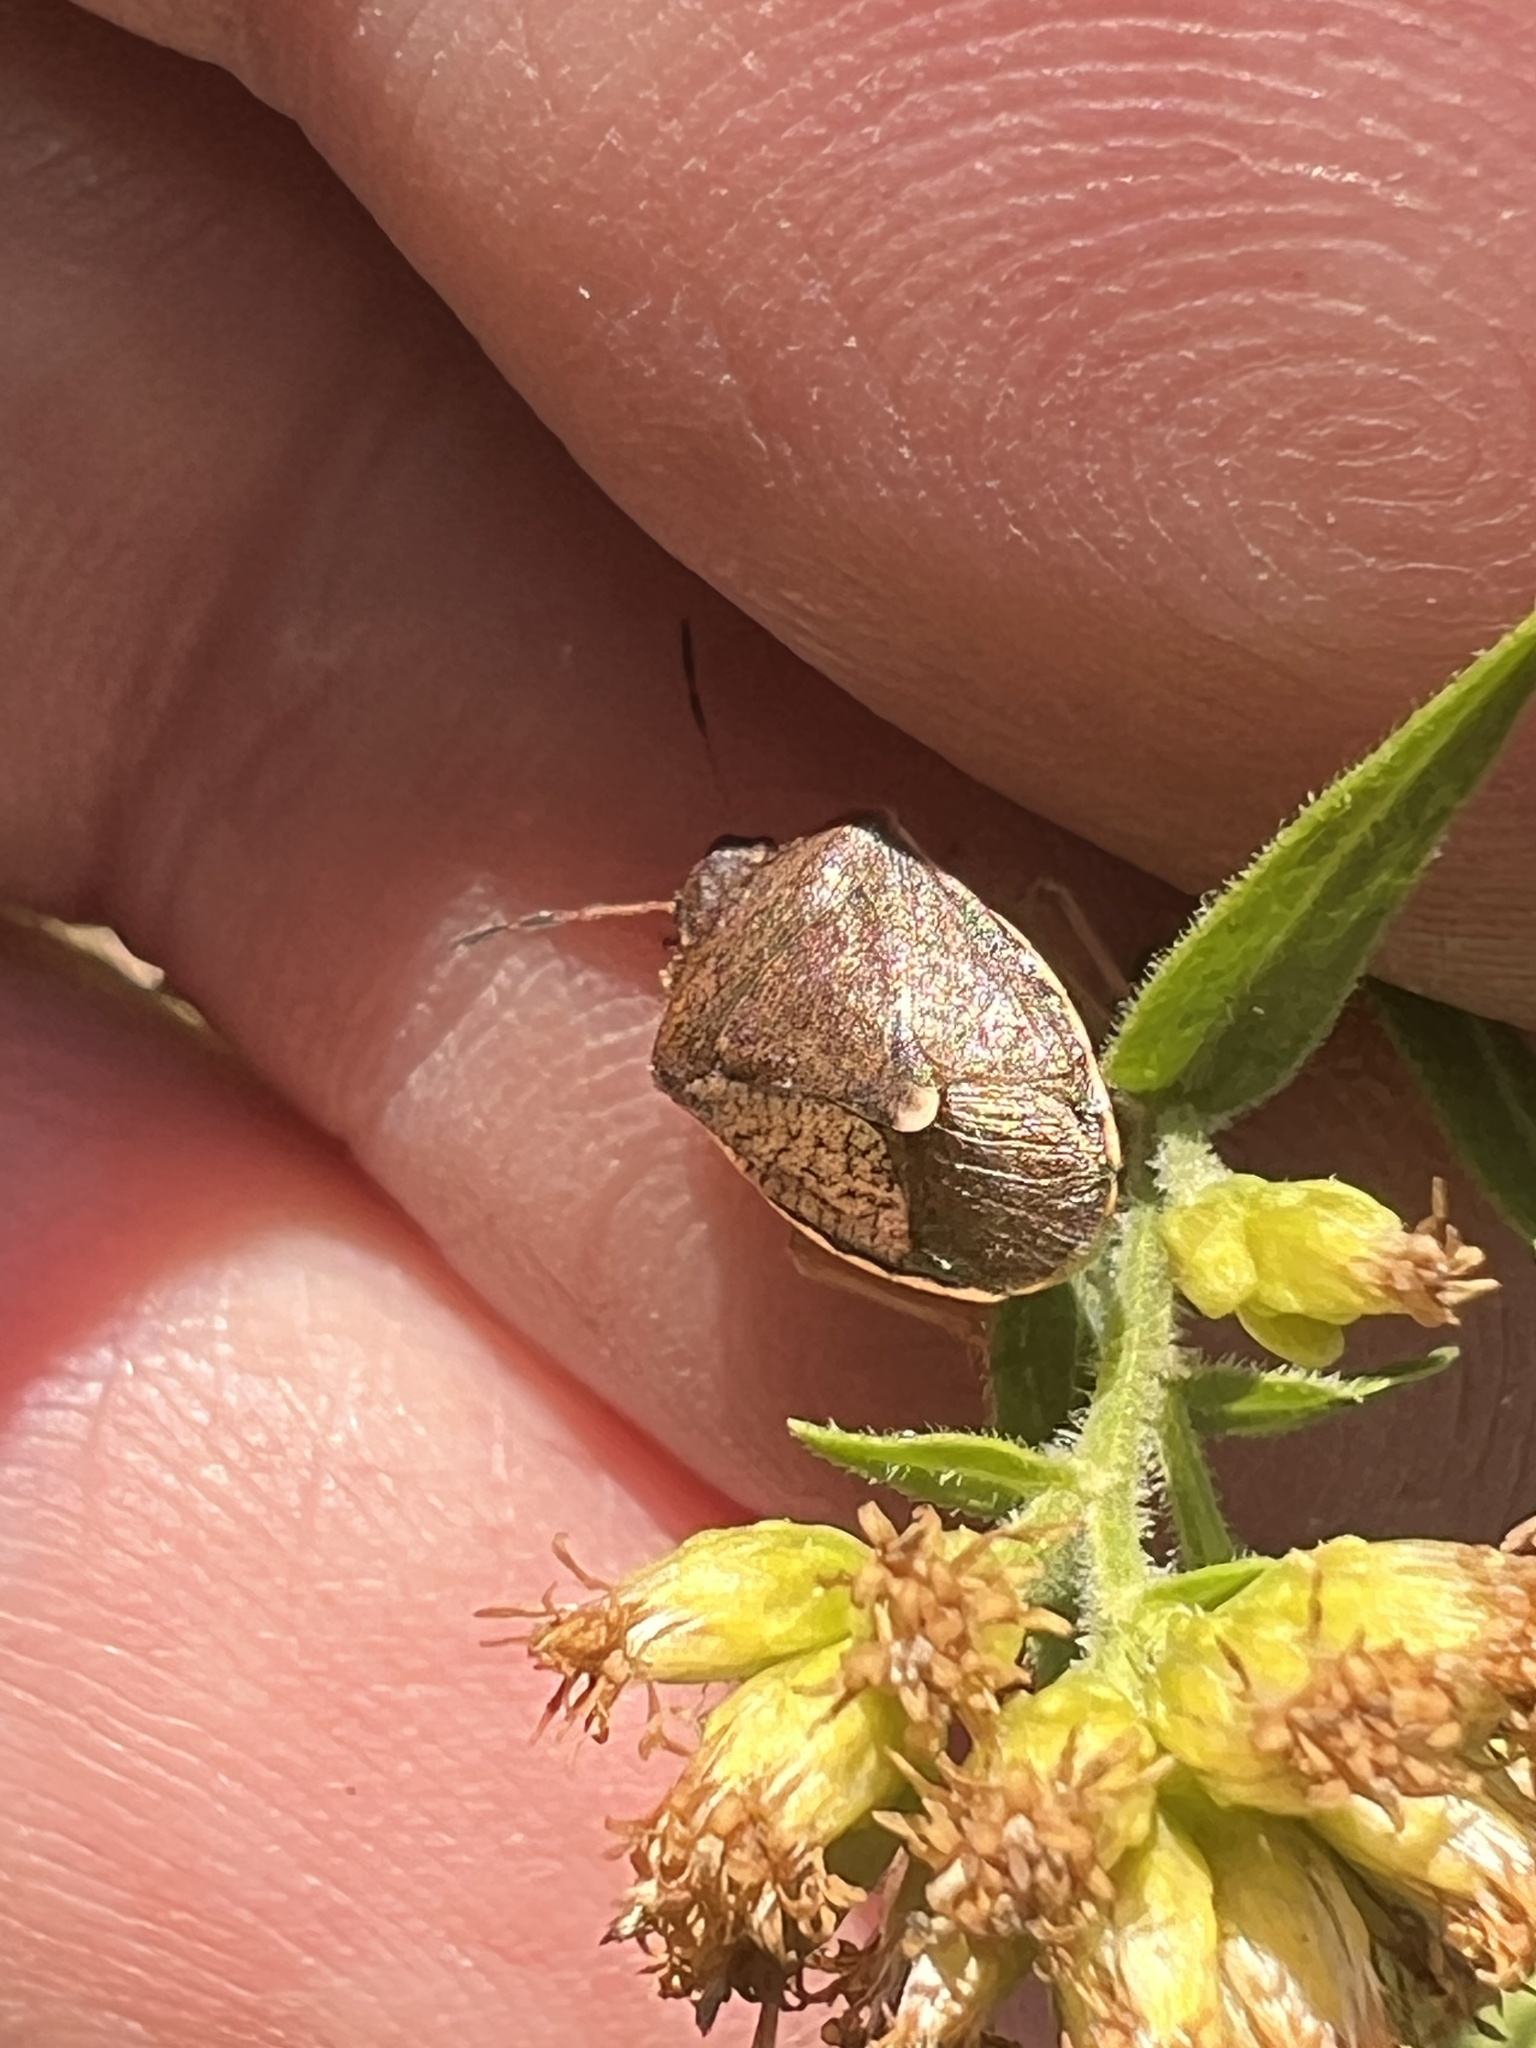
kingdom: Animalia
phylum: Arthropoda
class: Insecta
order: Hemiptera
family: Pentatomidae
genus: Holcostethus
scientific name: Holcostethus limbolarius
